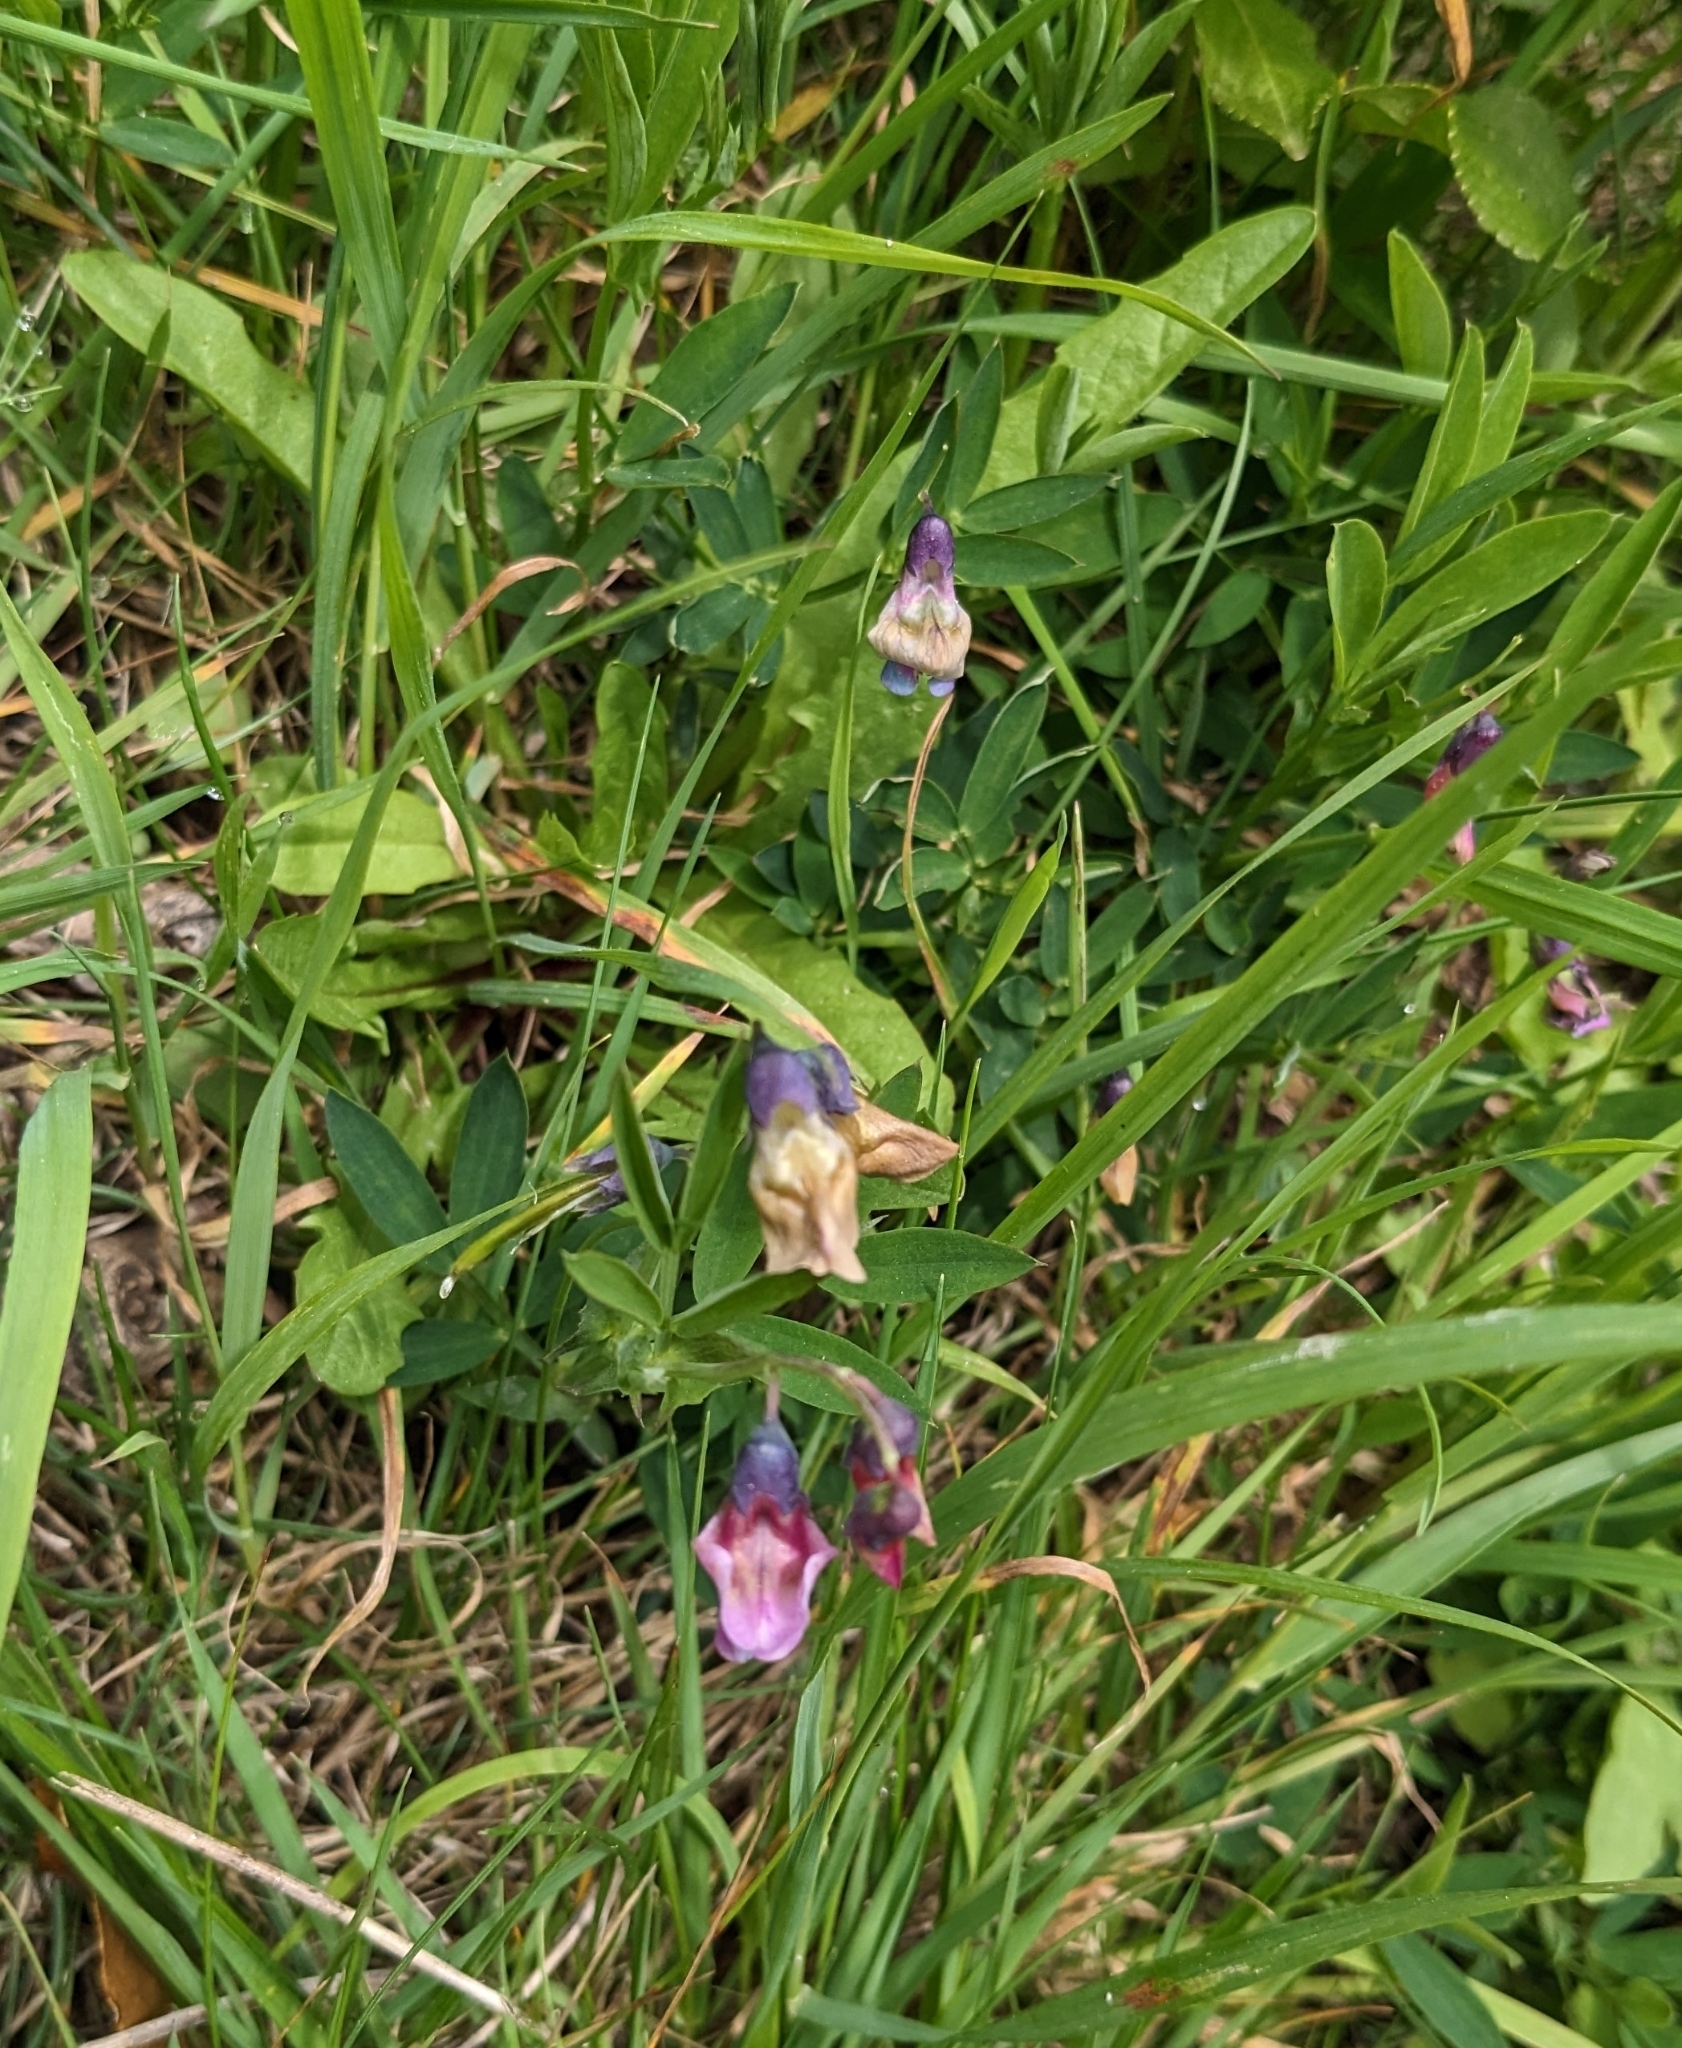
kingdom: Plantae
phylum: Tracheophyta
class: Magnoliopsida
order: Fabales
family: Fabaceae
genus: Lathyrus
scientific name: Lathyrus linifolius
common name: Bitter-vetch
